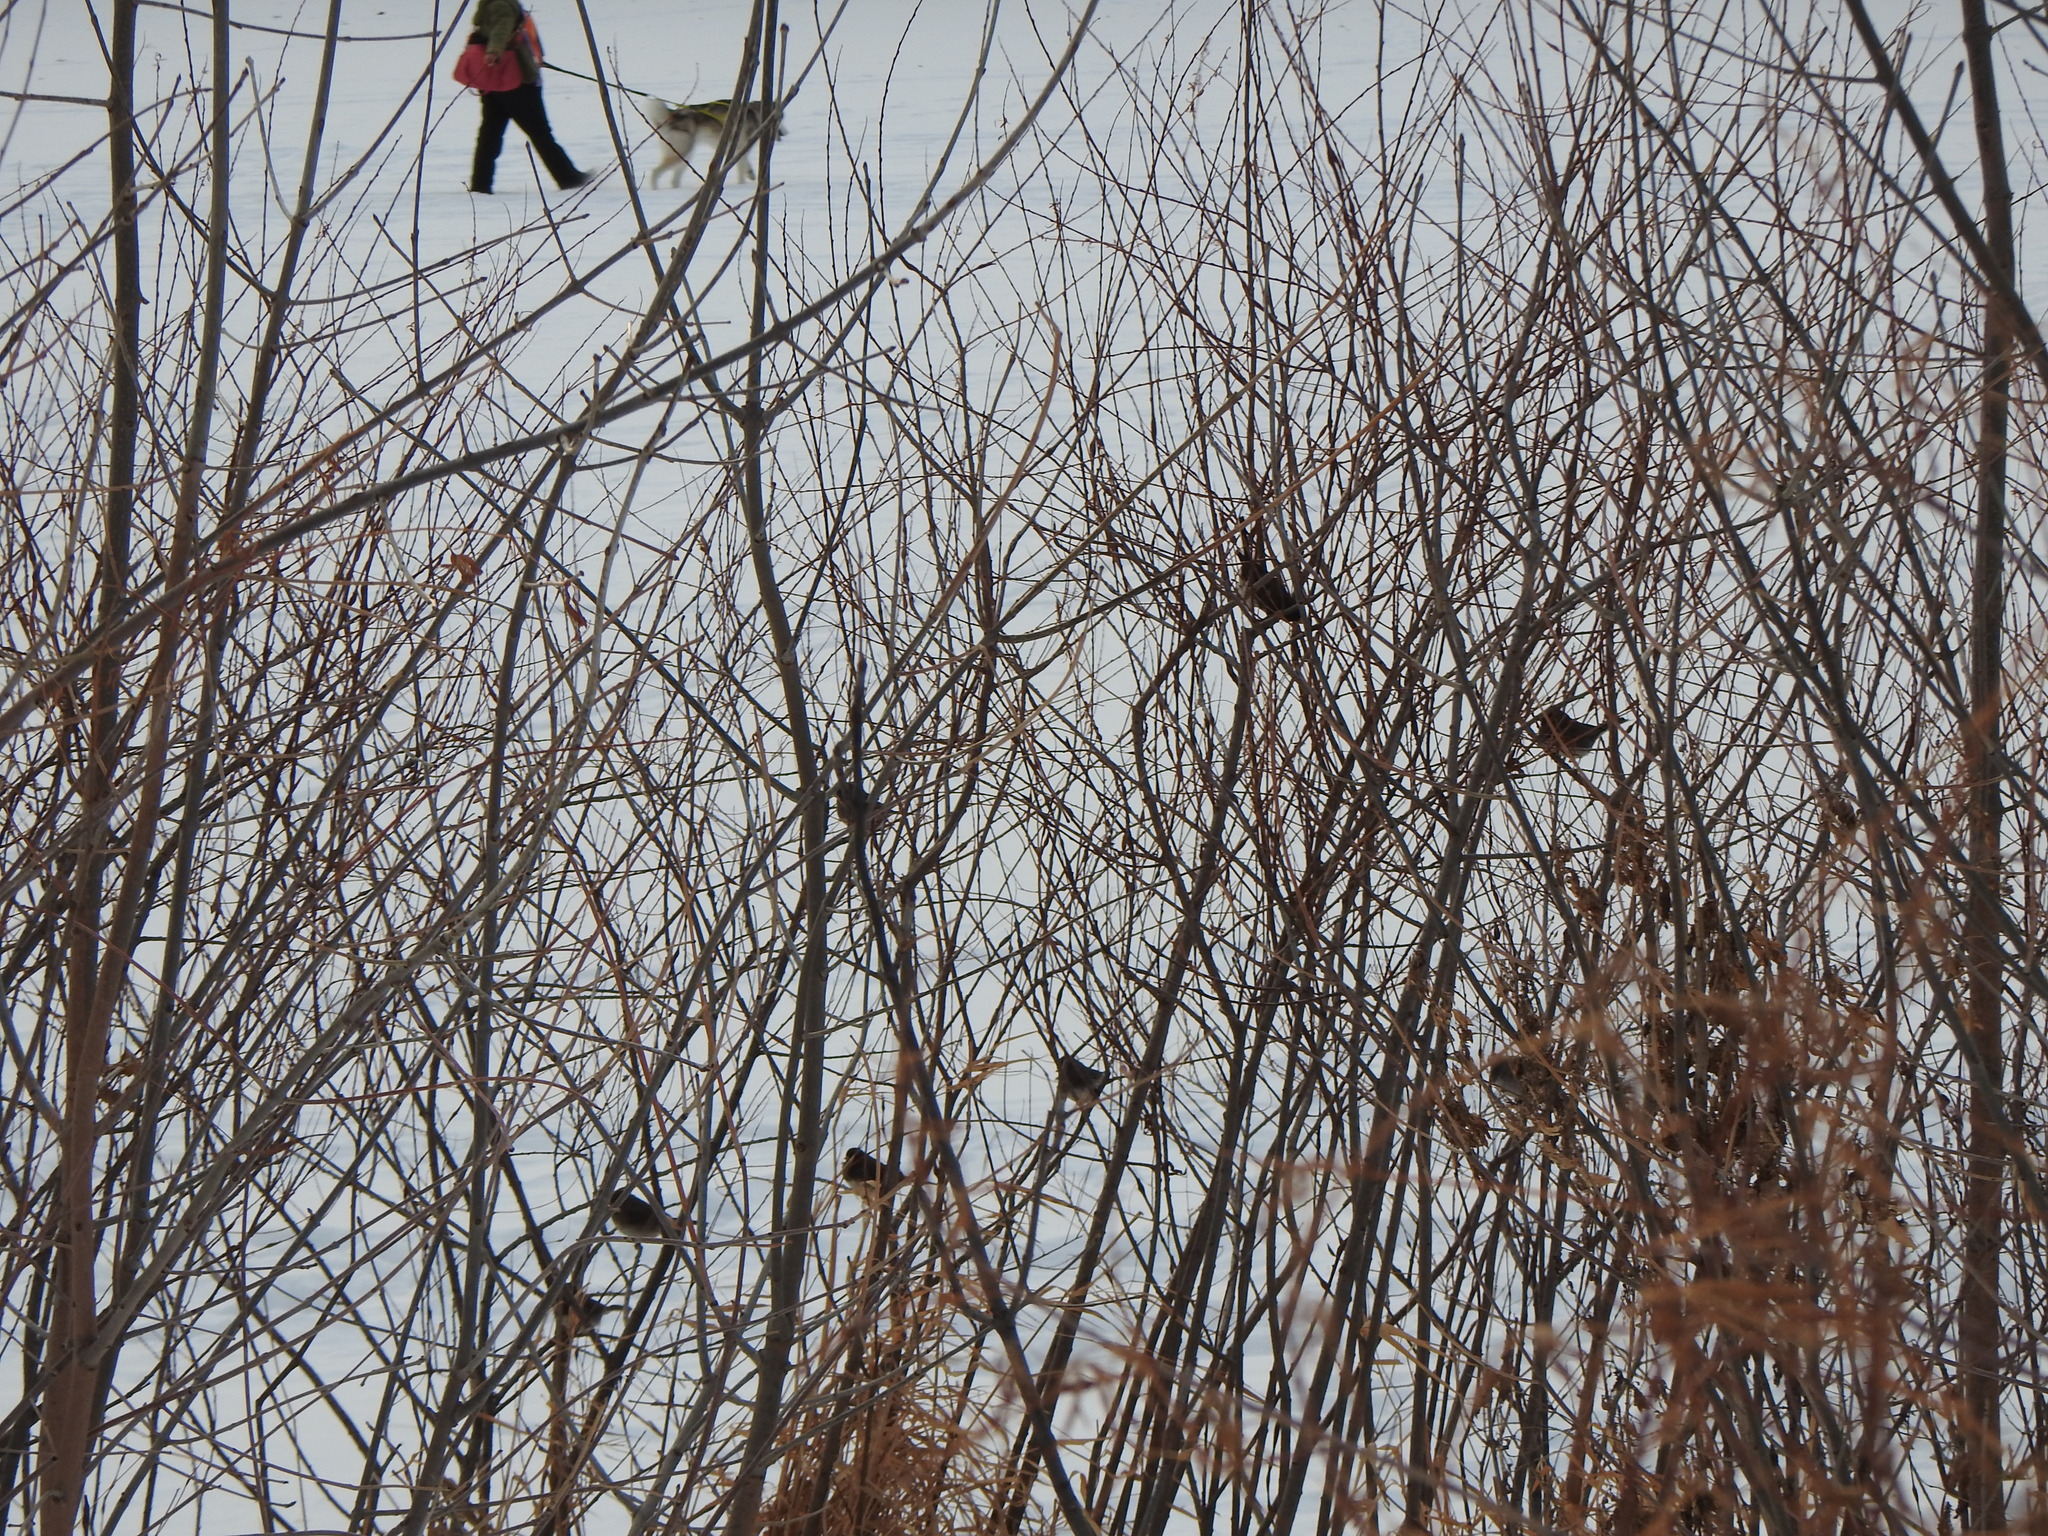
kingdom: Animalia
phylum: Chordata
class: Aves
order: Passeriformes
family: Passerellidae
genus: Junco
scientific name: Junco hyemalis
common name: Dark-eyed junco
